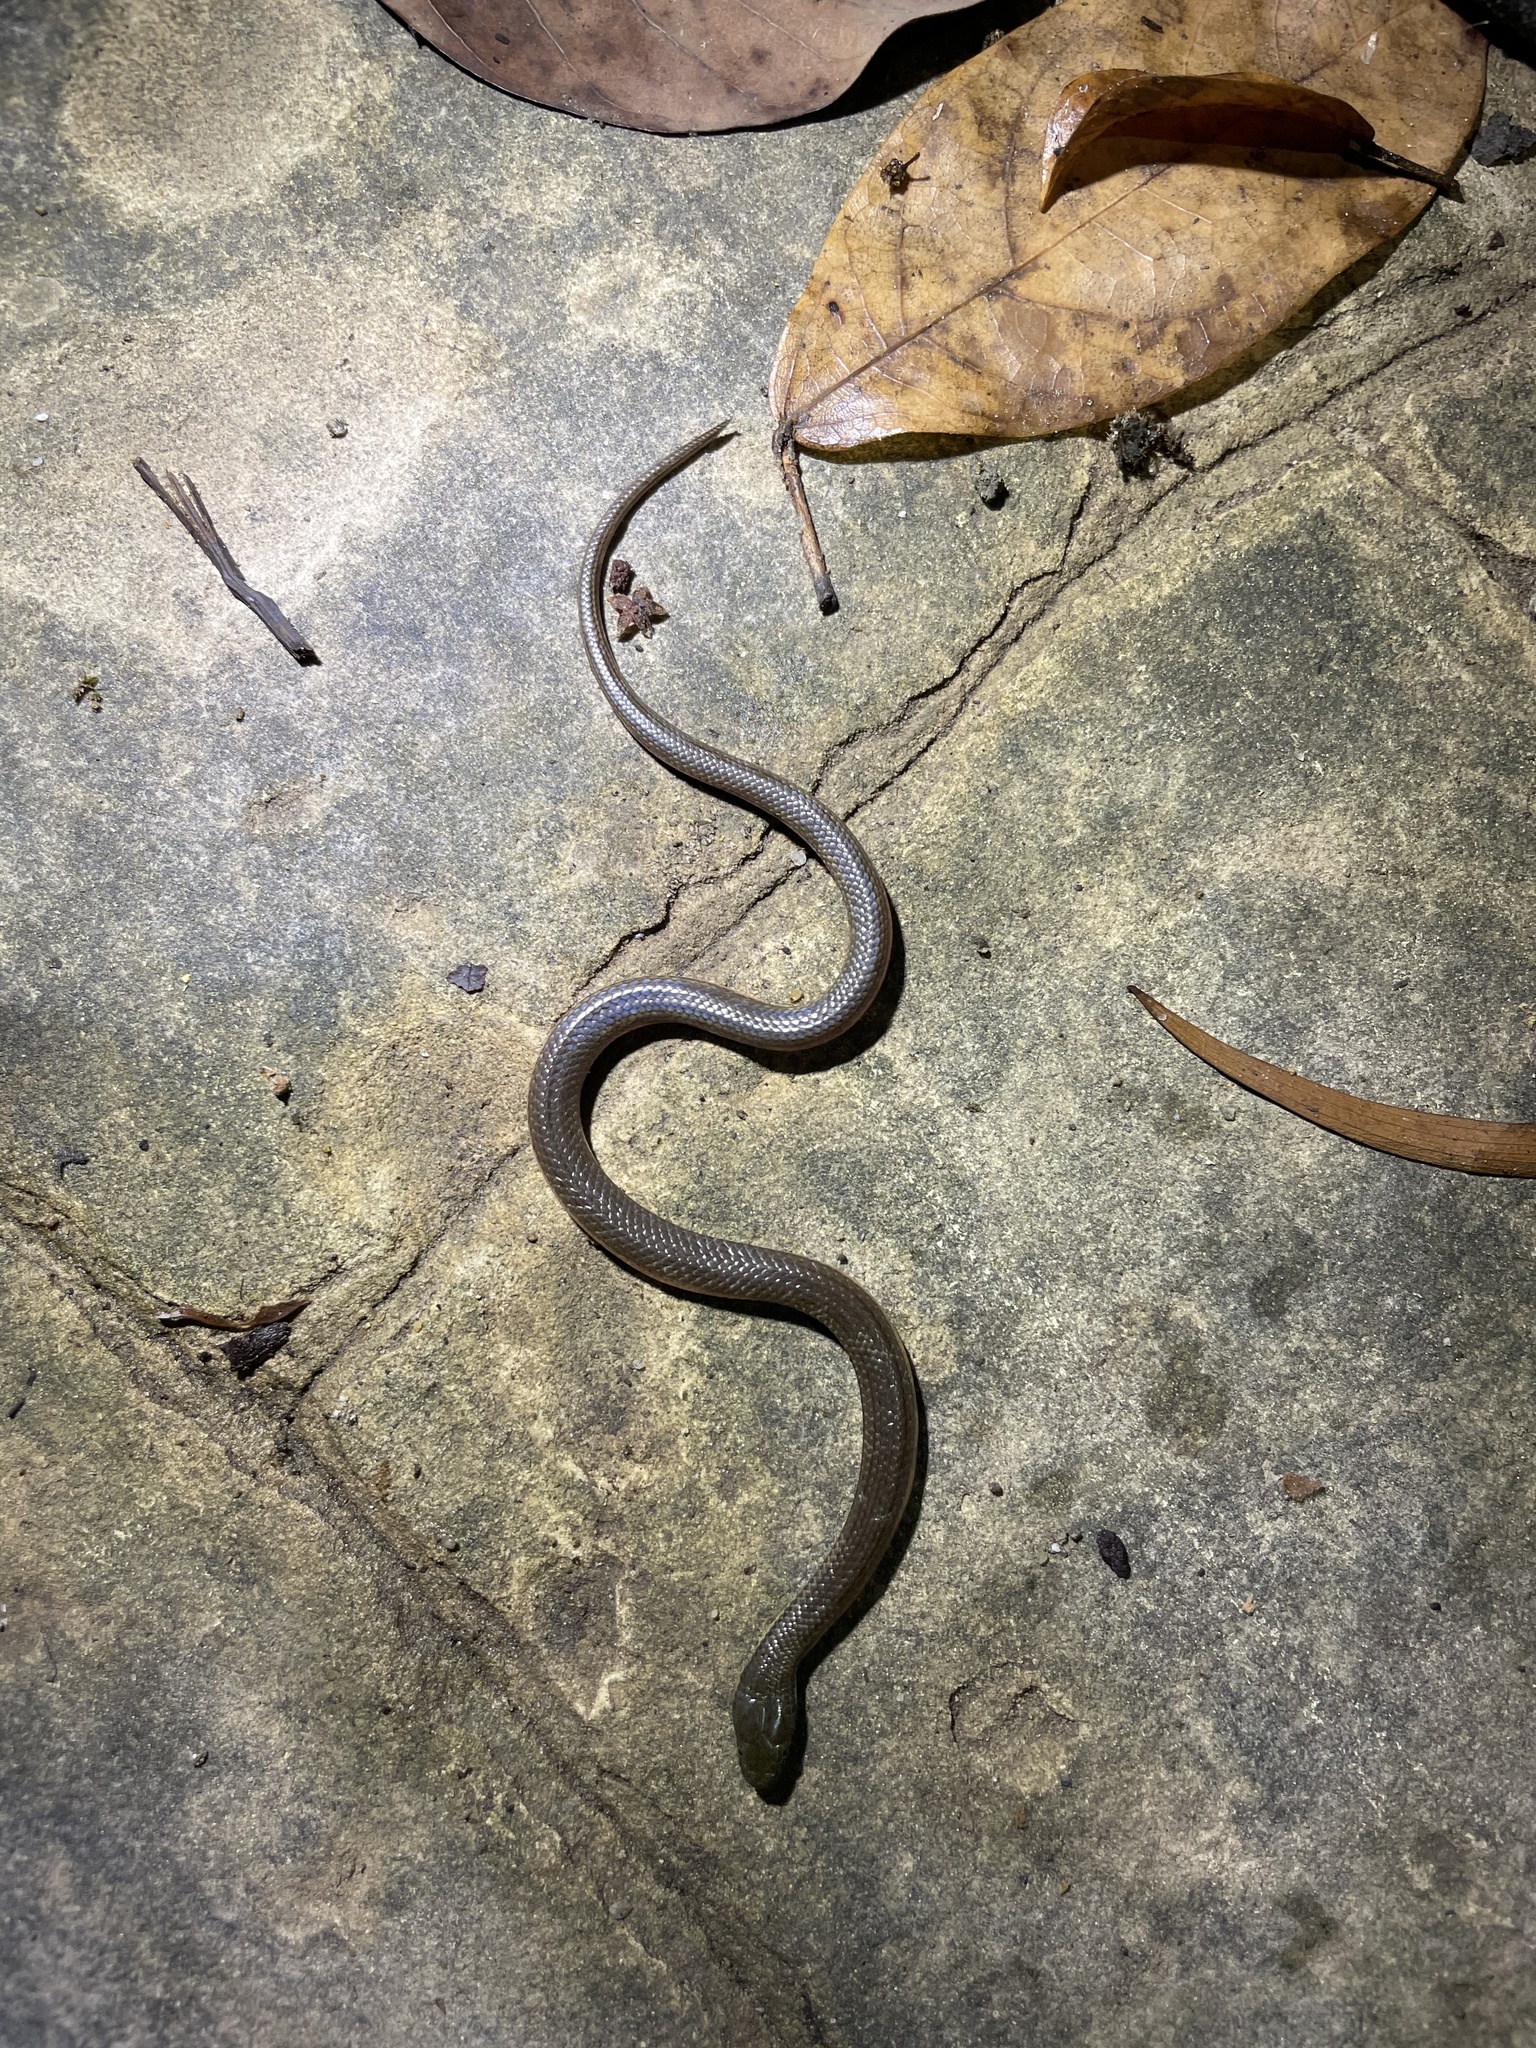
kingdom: Animalia
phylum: Chordata
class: Squamata
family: Colubridae
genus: Opisthotropis
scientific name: Opisthotropis lateralis
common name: Tonkin mountain keelback
